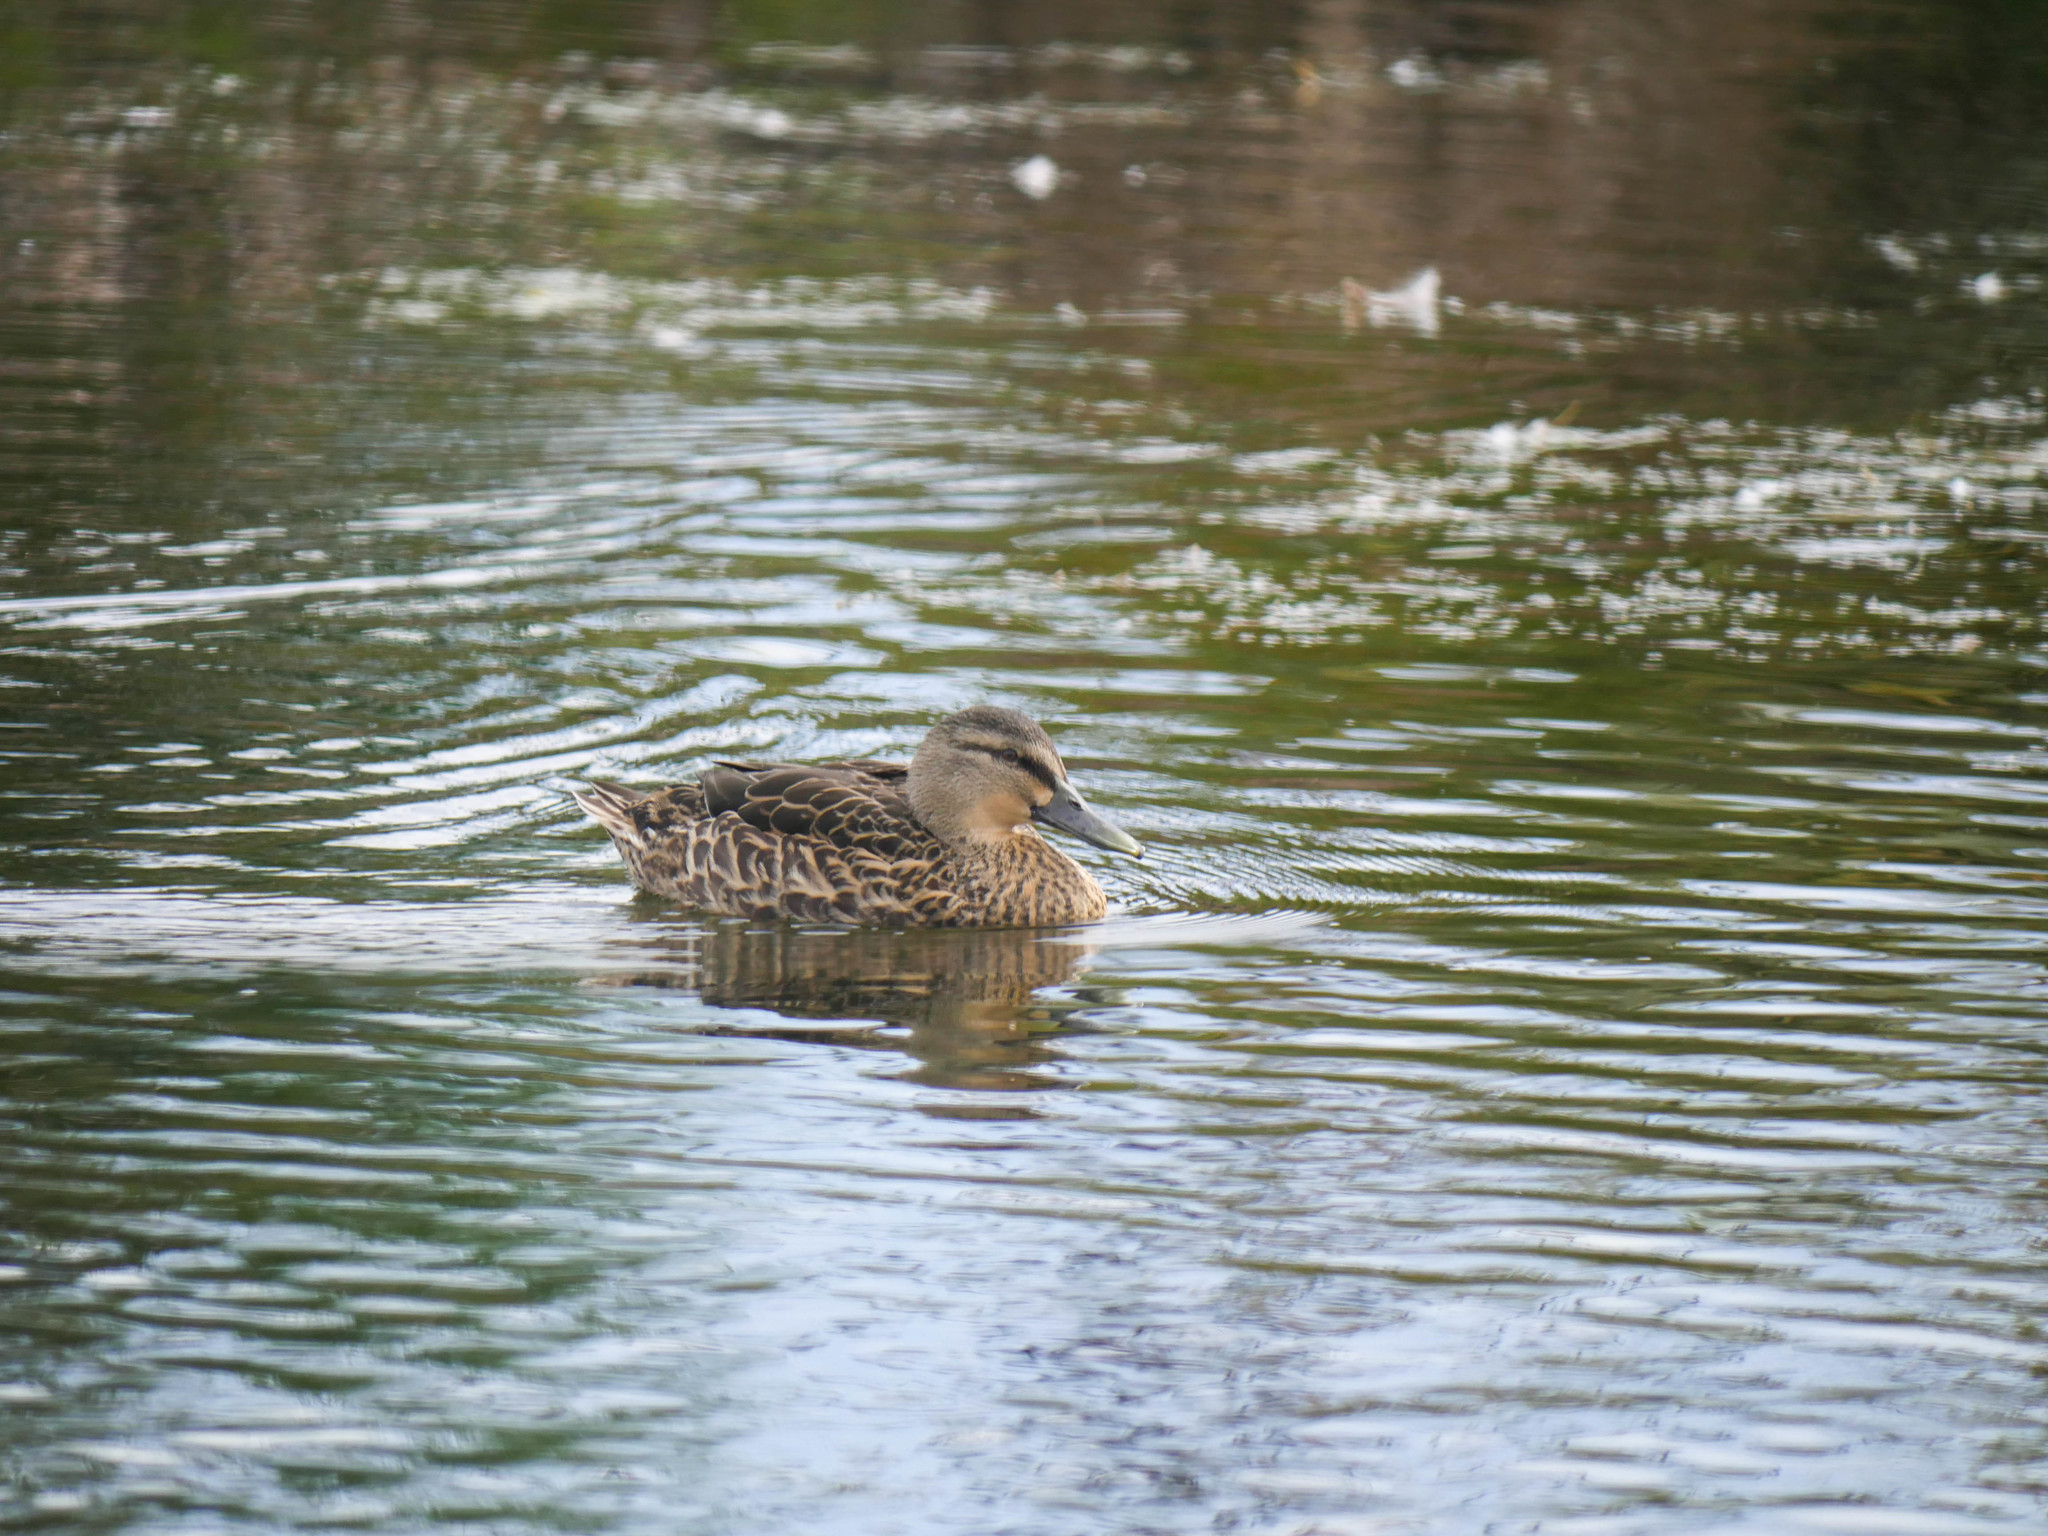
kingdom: Animalia
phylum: Chordata
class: Aves
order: Anseriformes
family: Anatidae
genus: Anas
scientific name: Anas
